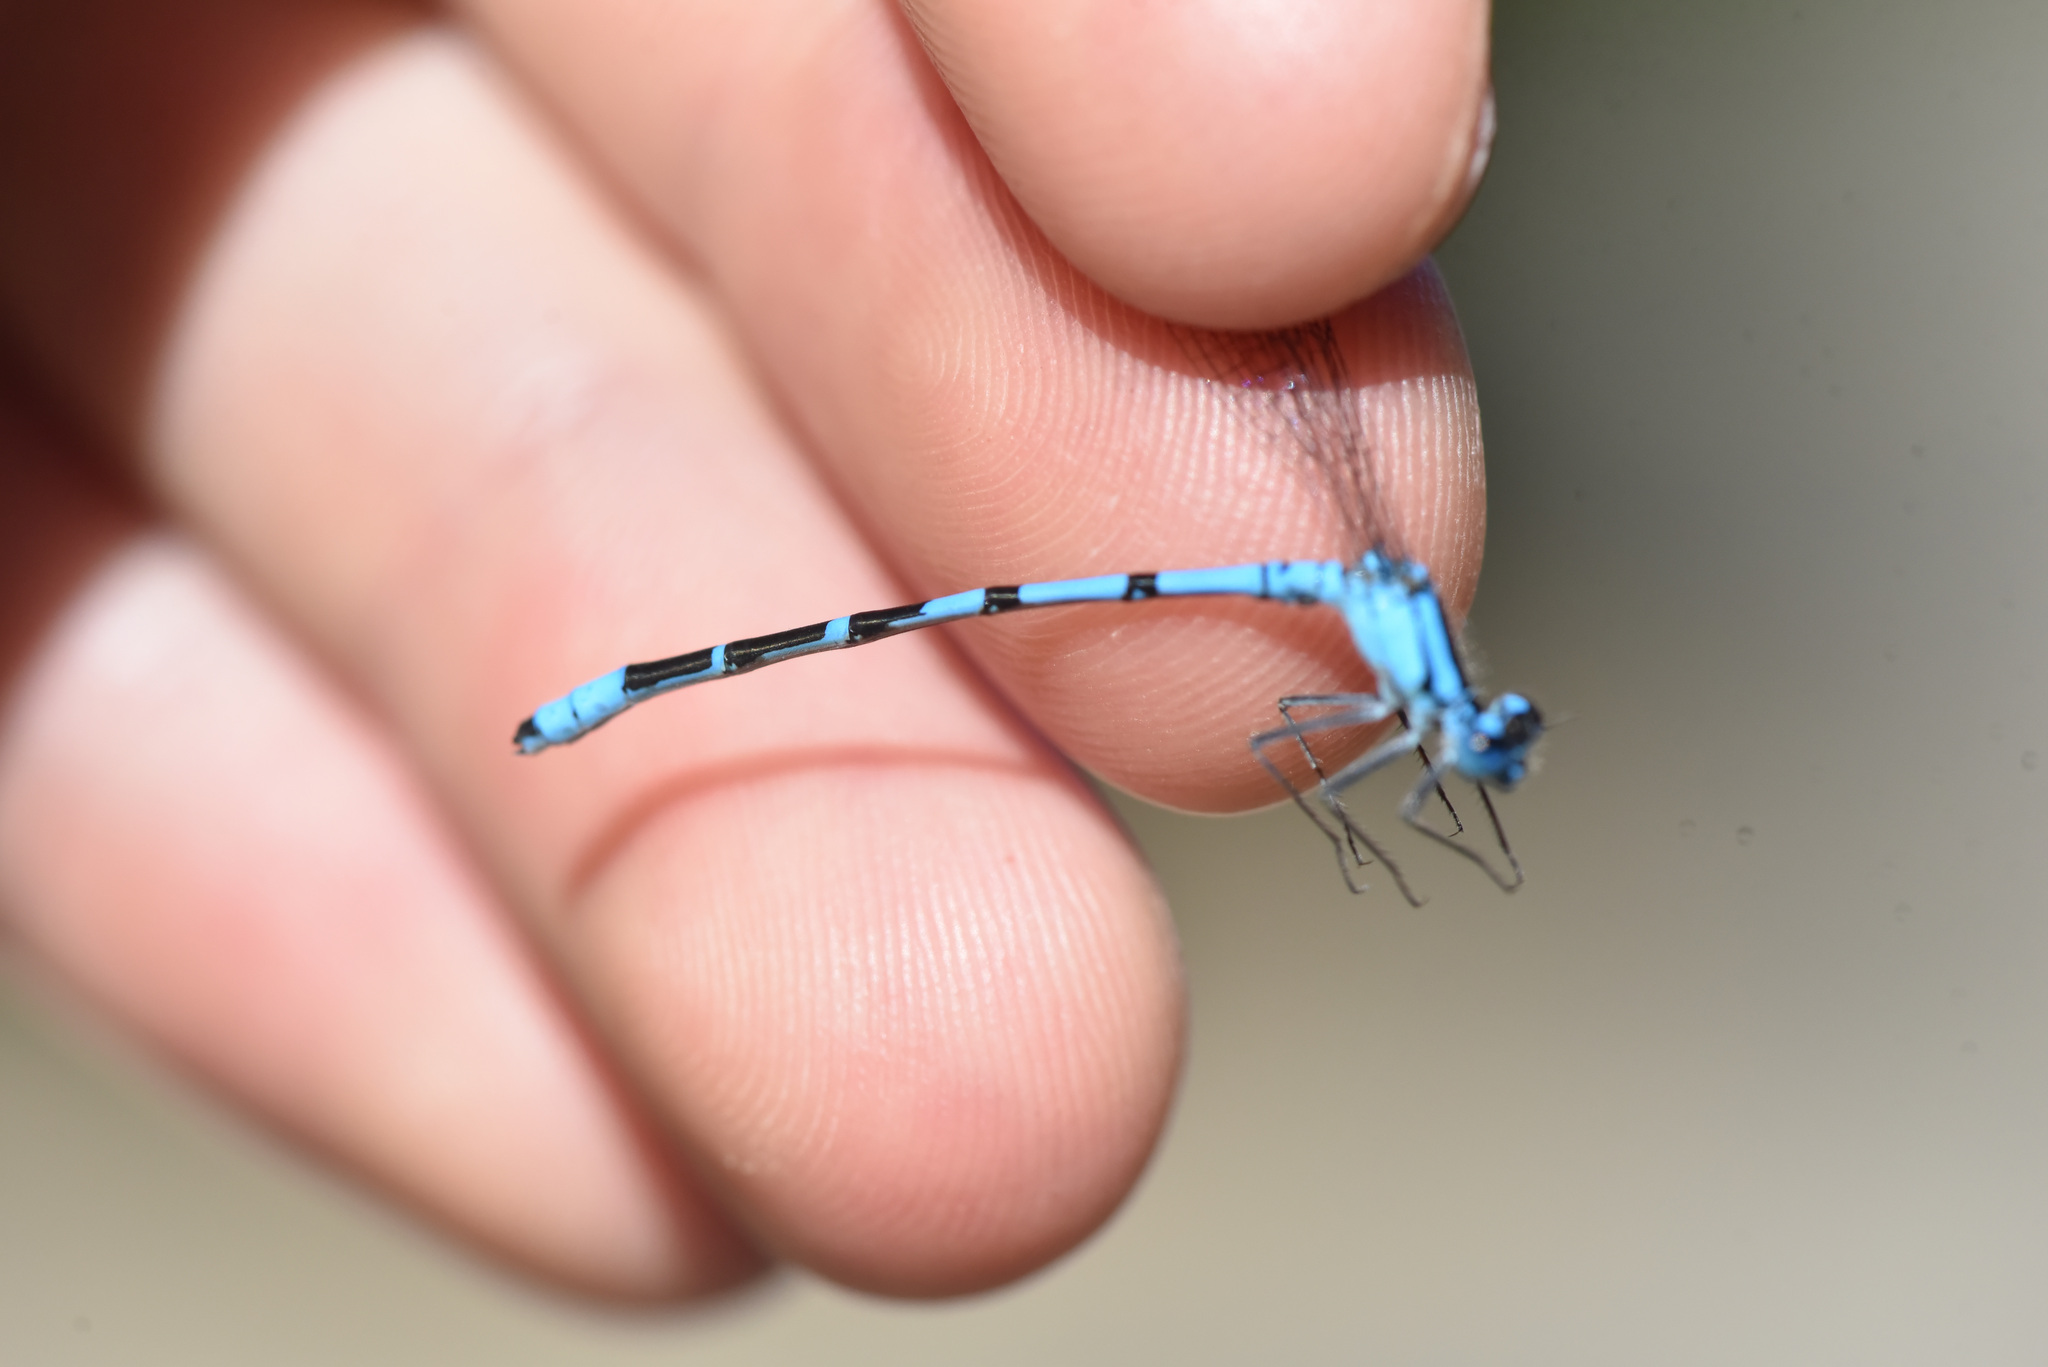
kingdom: Animalia
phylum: Arthropoda
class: Insecta
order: Odonata
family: Coenagrionidae
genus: Enallagma
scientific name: Enallagma annexum
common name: Northern bluet
